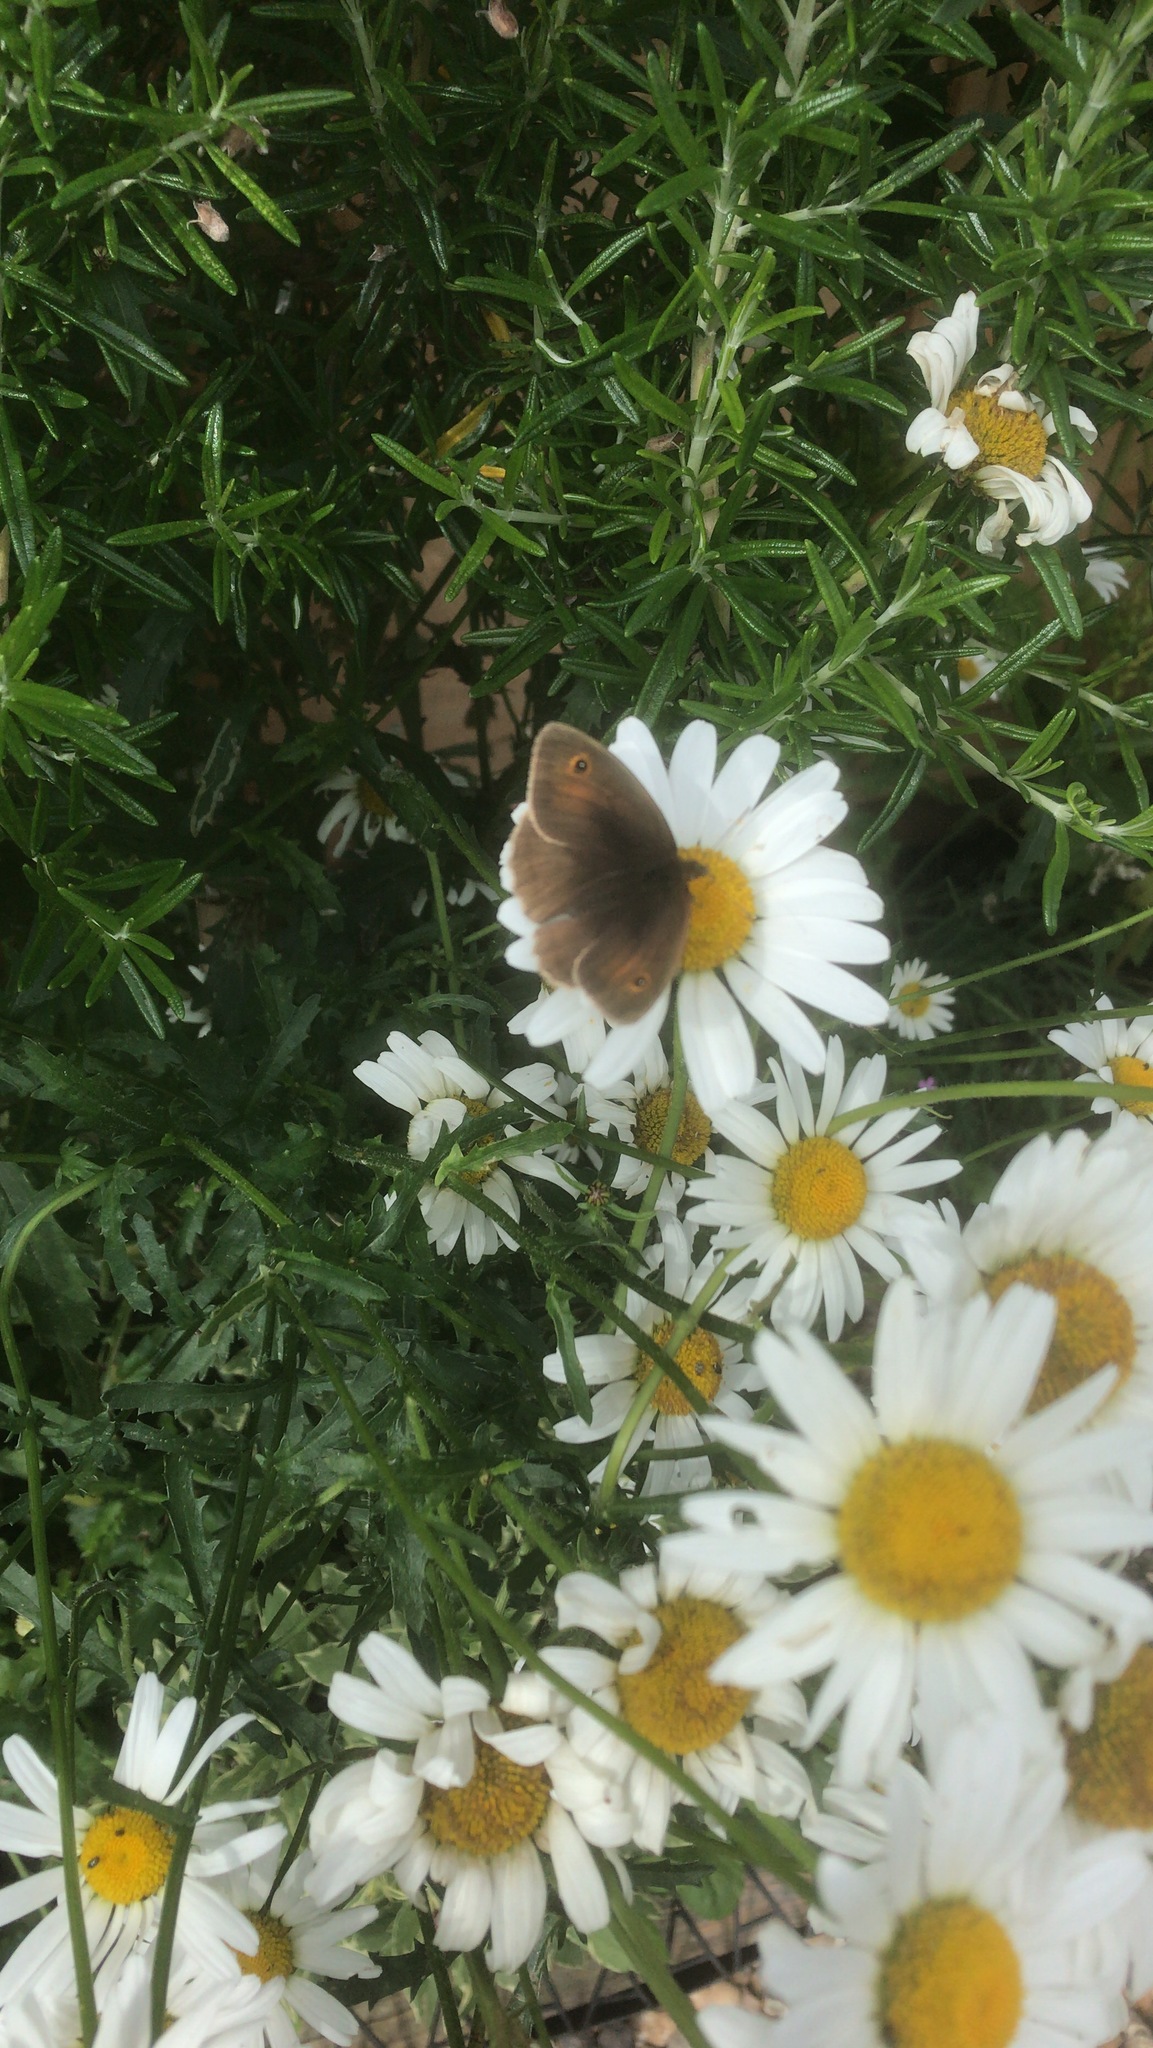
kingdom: Animalia
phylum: Arthropoda
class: Insecta
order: Lepidoptera
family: Nymphalidae
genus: Maniola
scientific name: Maniola jurtina
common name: Meadow brown
